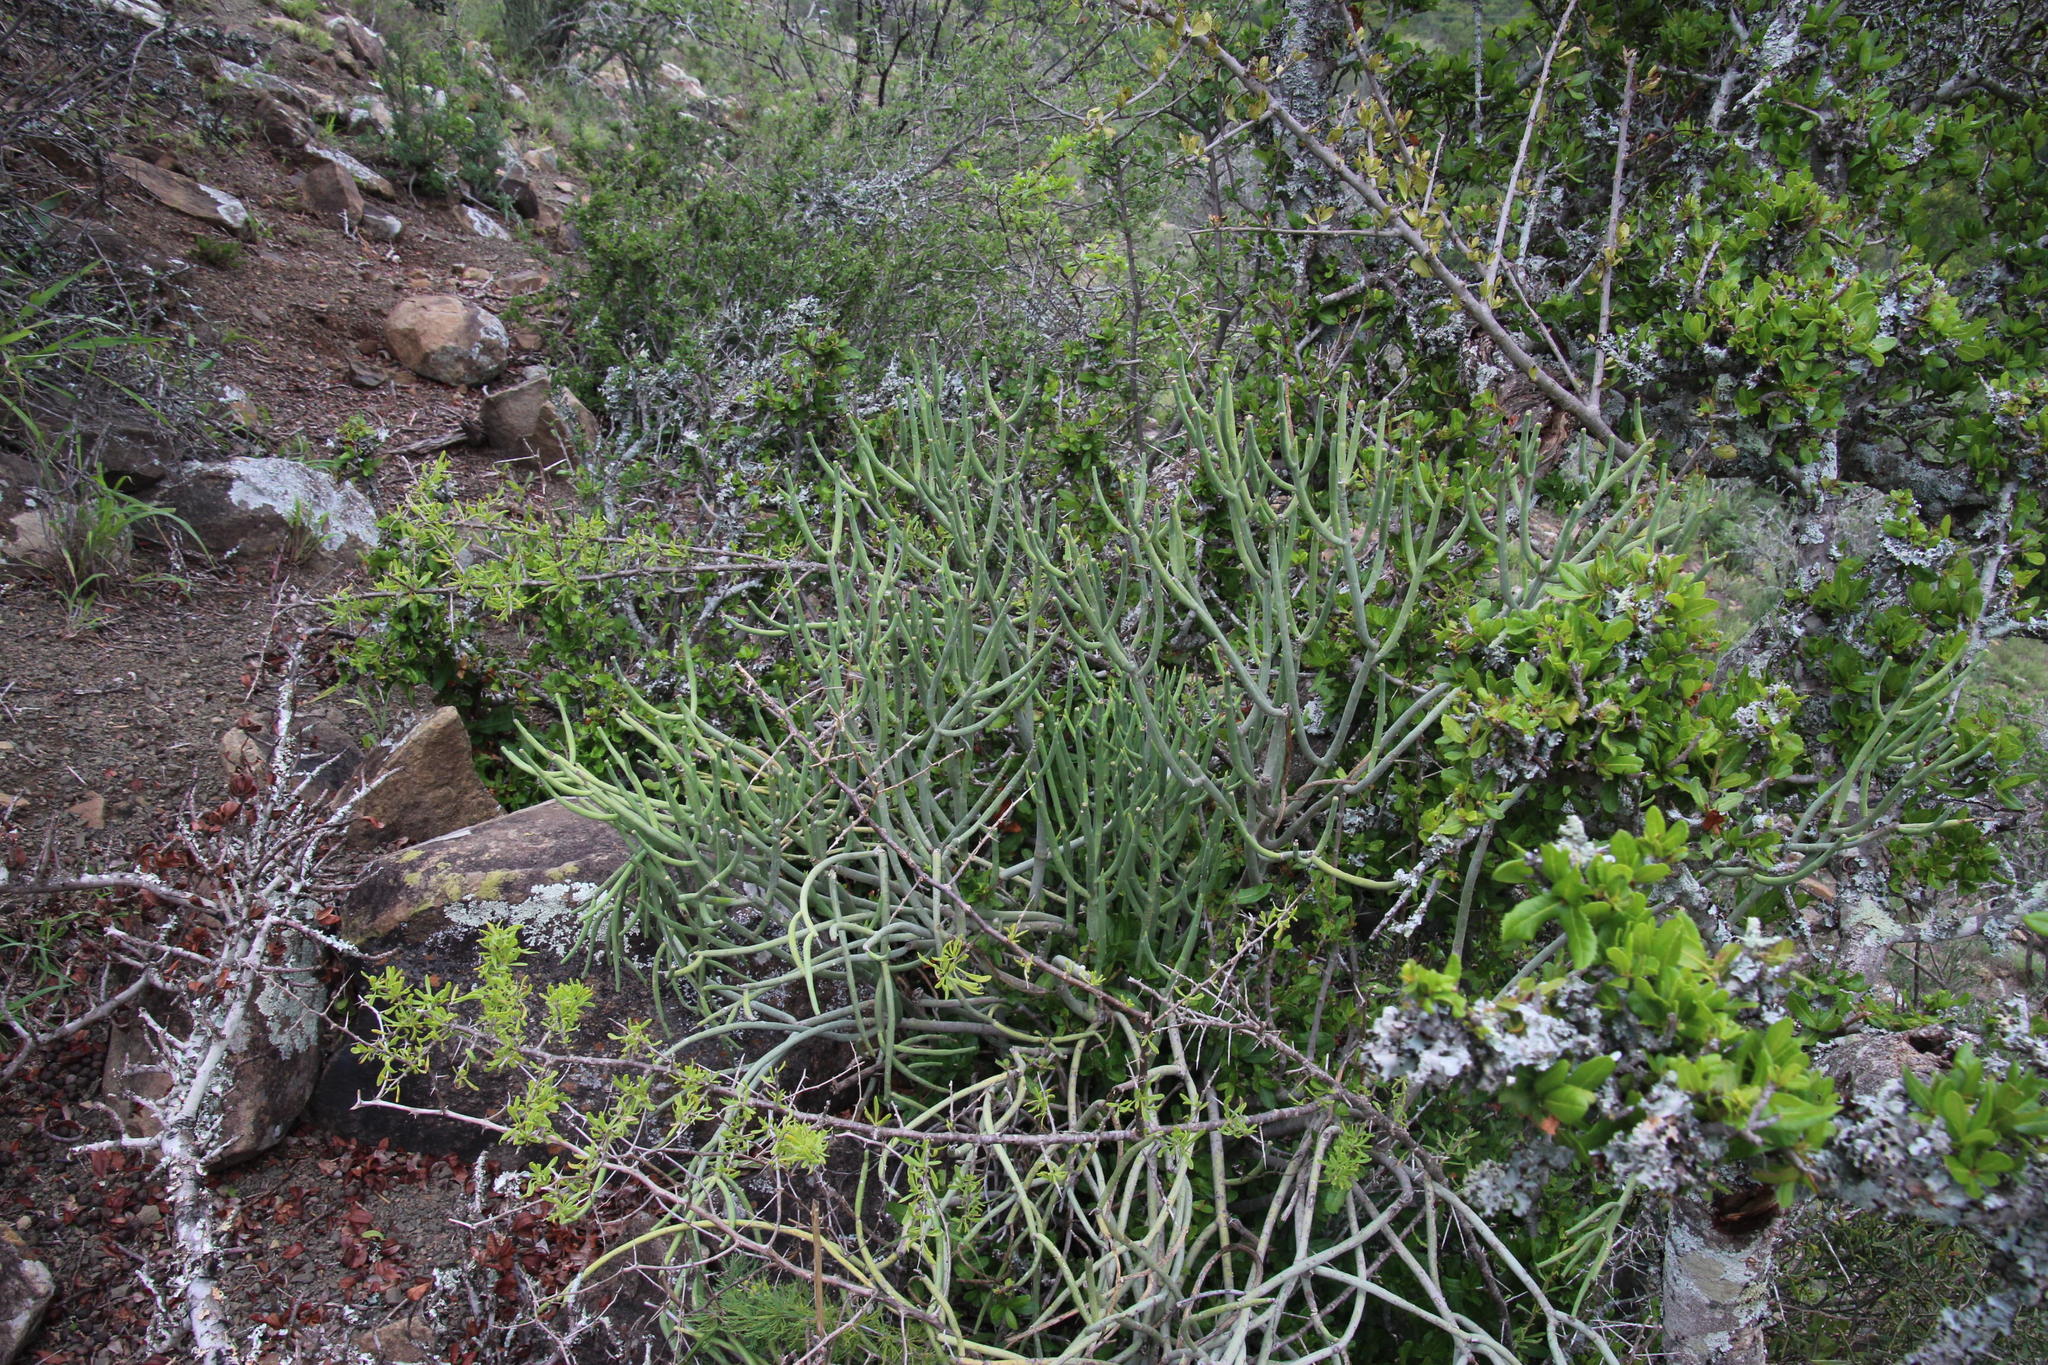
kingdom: Plantae
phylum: Tracheophyta
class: Magnoliopsida
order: Malpighiales
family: Euphorbiaceae
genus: Euphorbia
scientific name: Euphorbia mauritanica
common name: Jackal's-food
